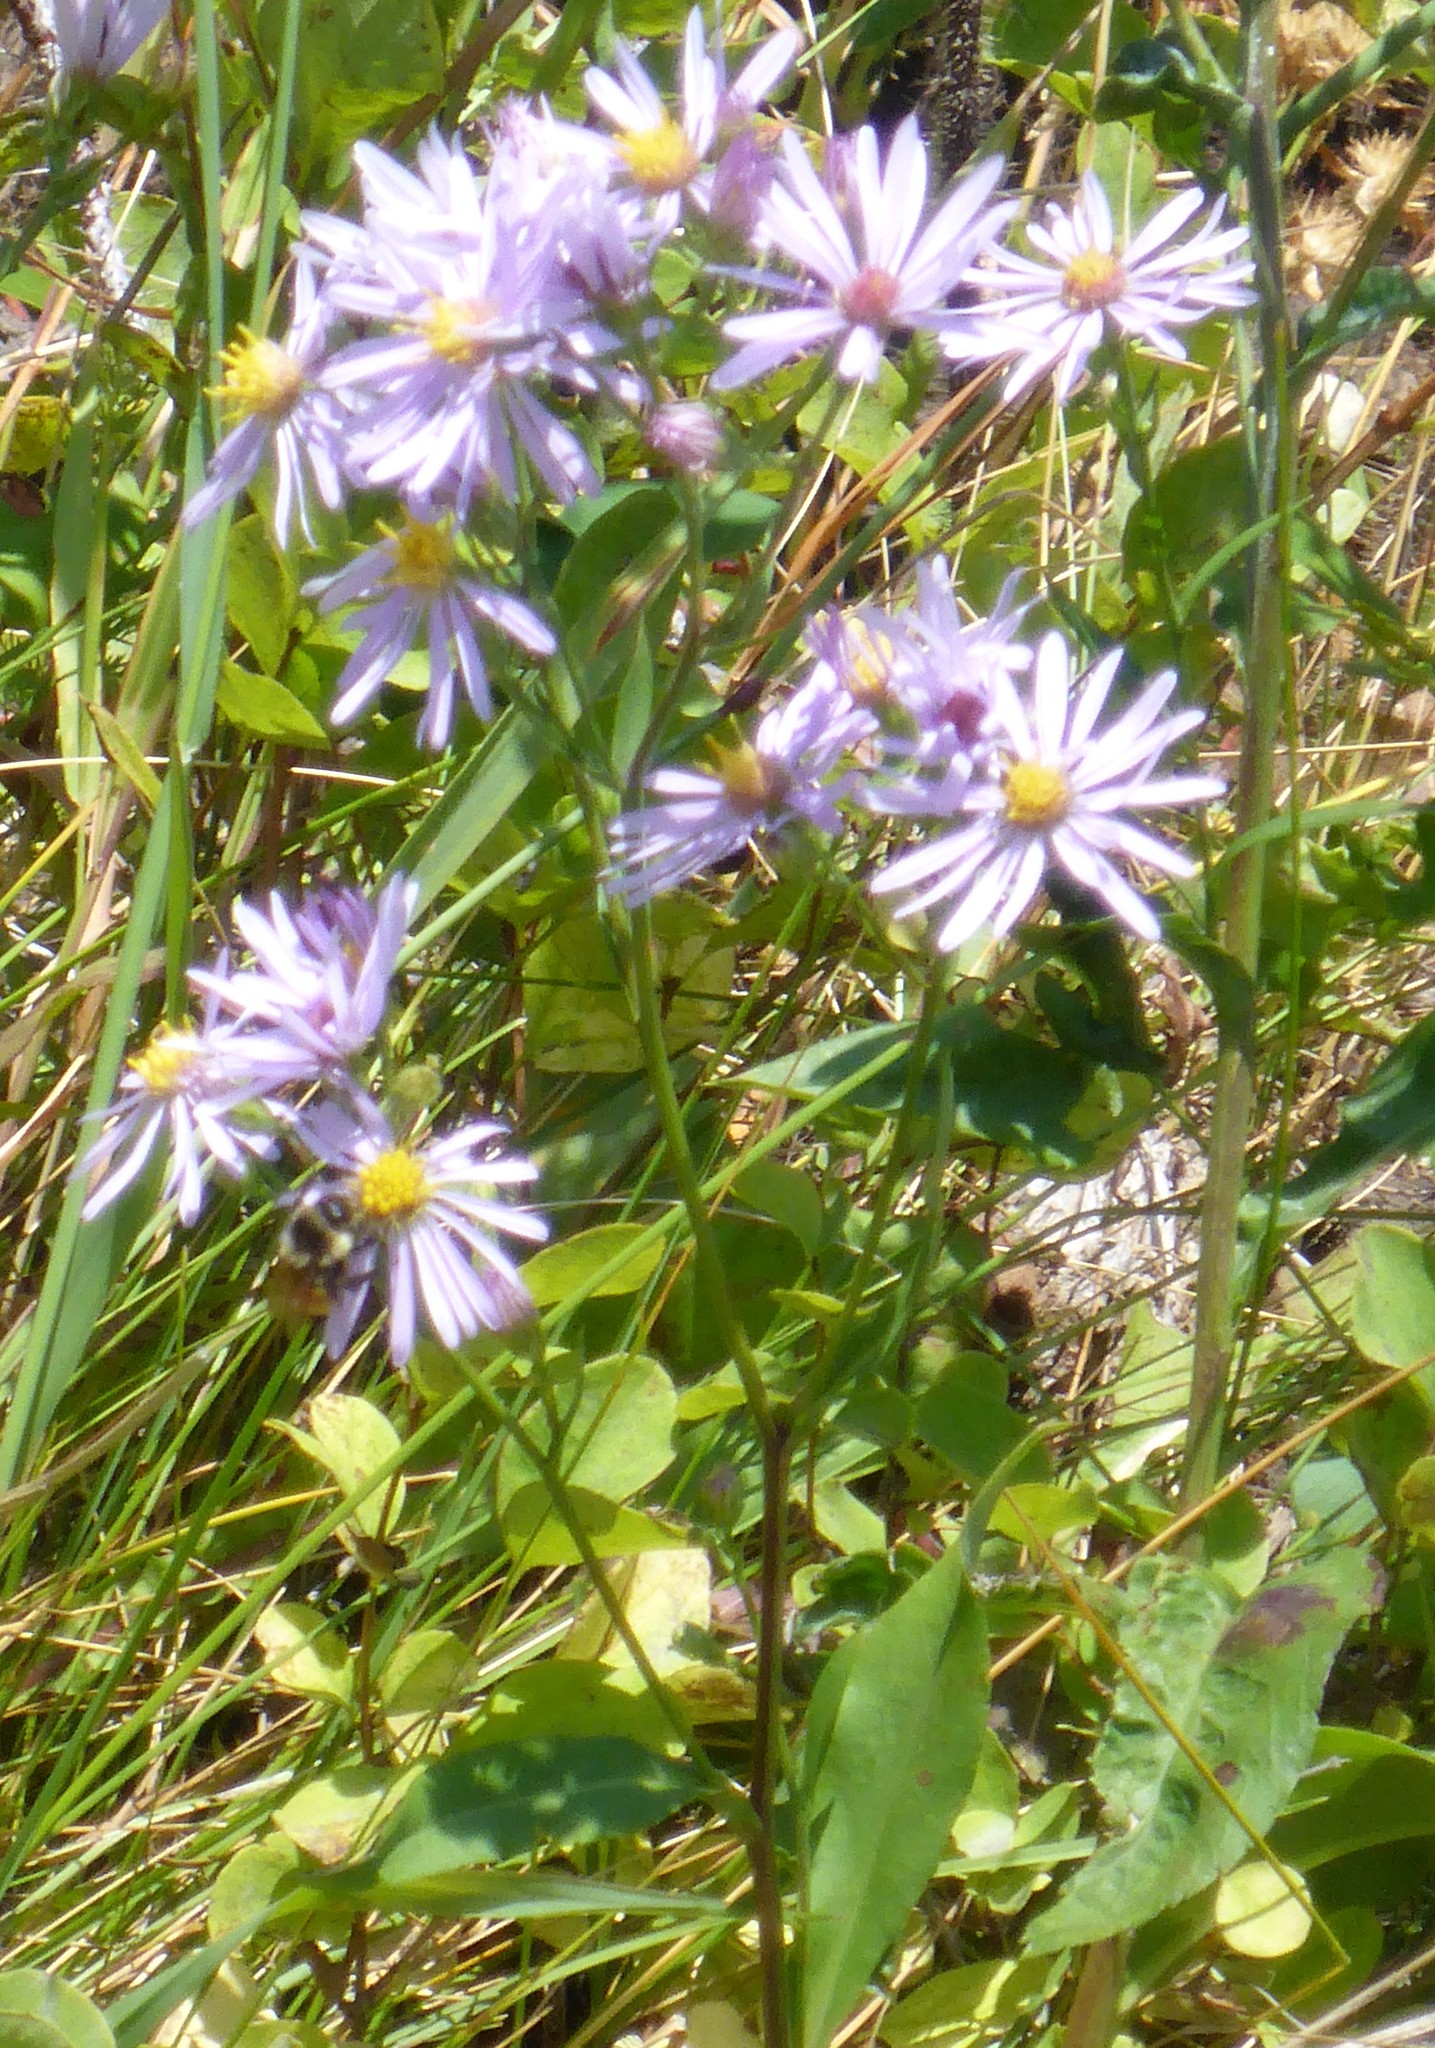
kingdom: Plantae
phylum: Tracheophyta
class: Magnoliopsida
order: Asterales
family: Asteraceae
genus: Symphyotrichum
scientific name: Symphyotrichum laeve
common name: Glaucous aster
